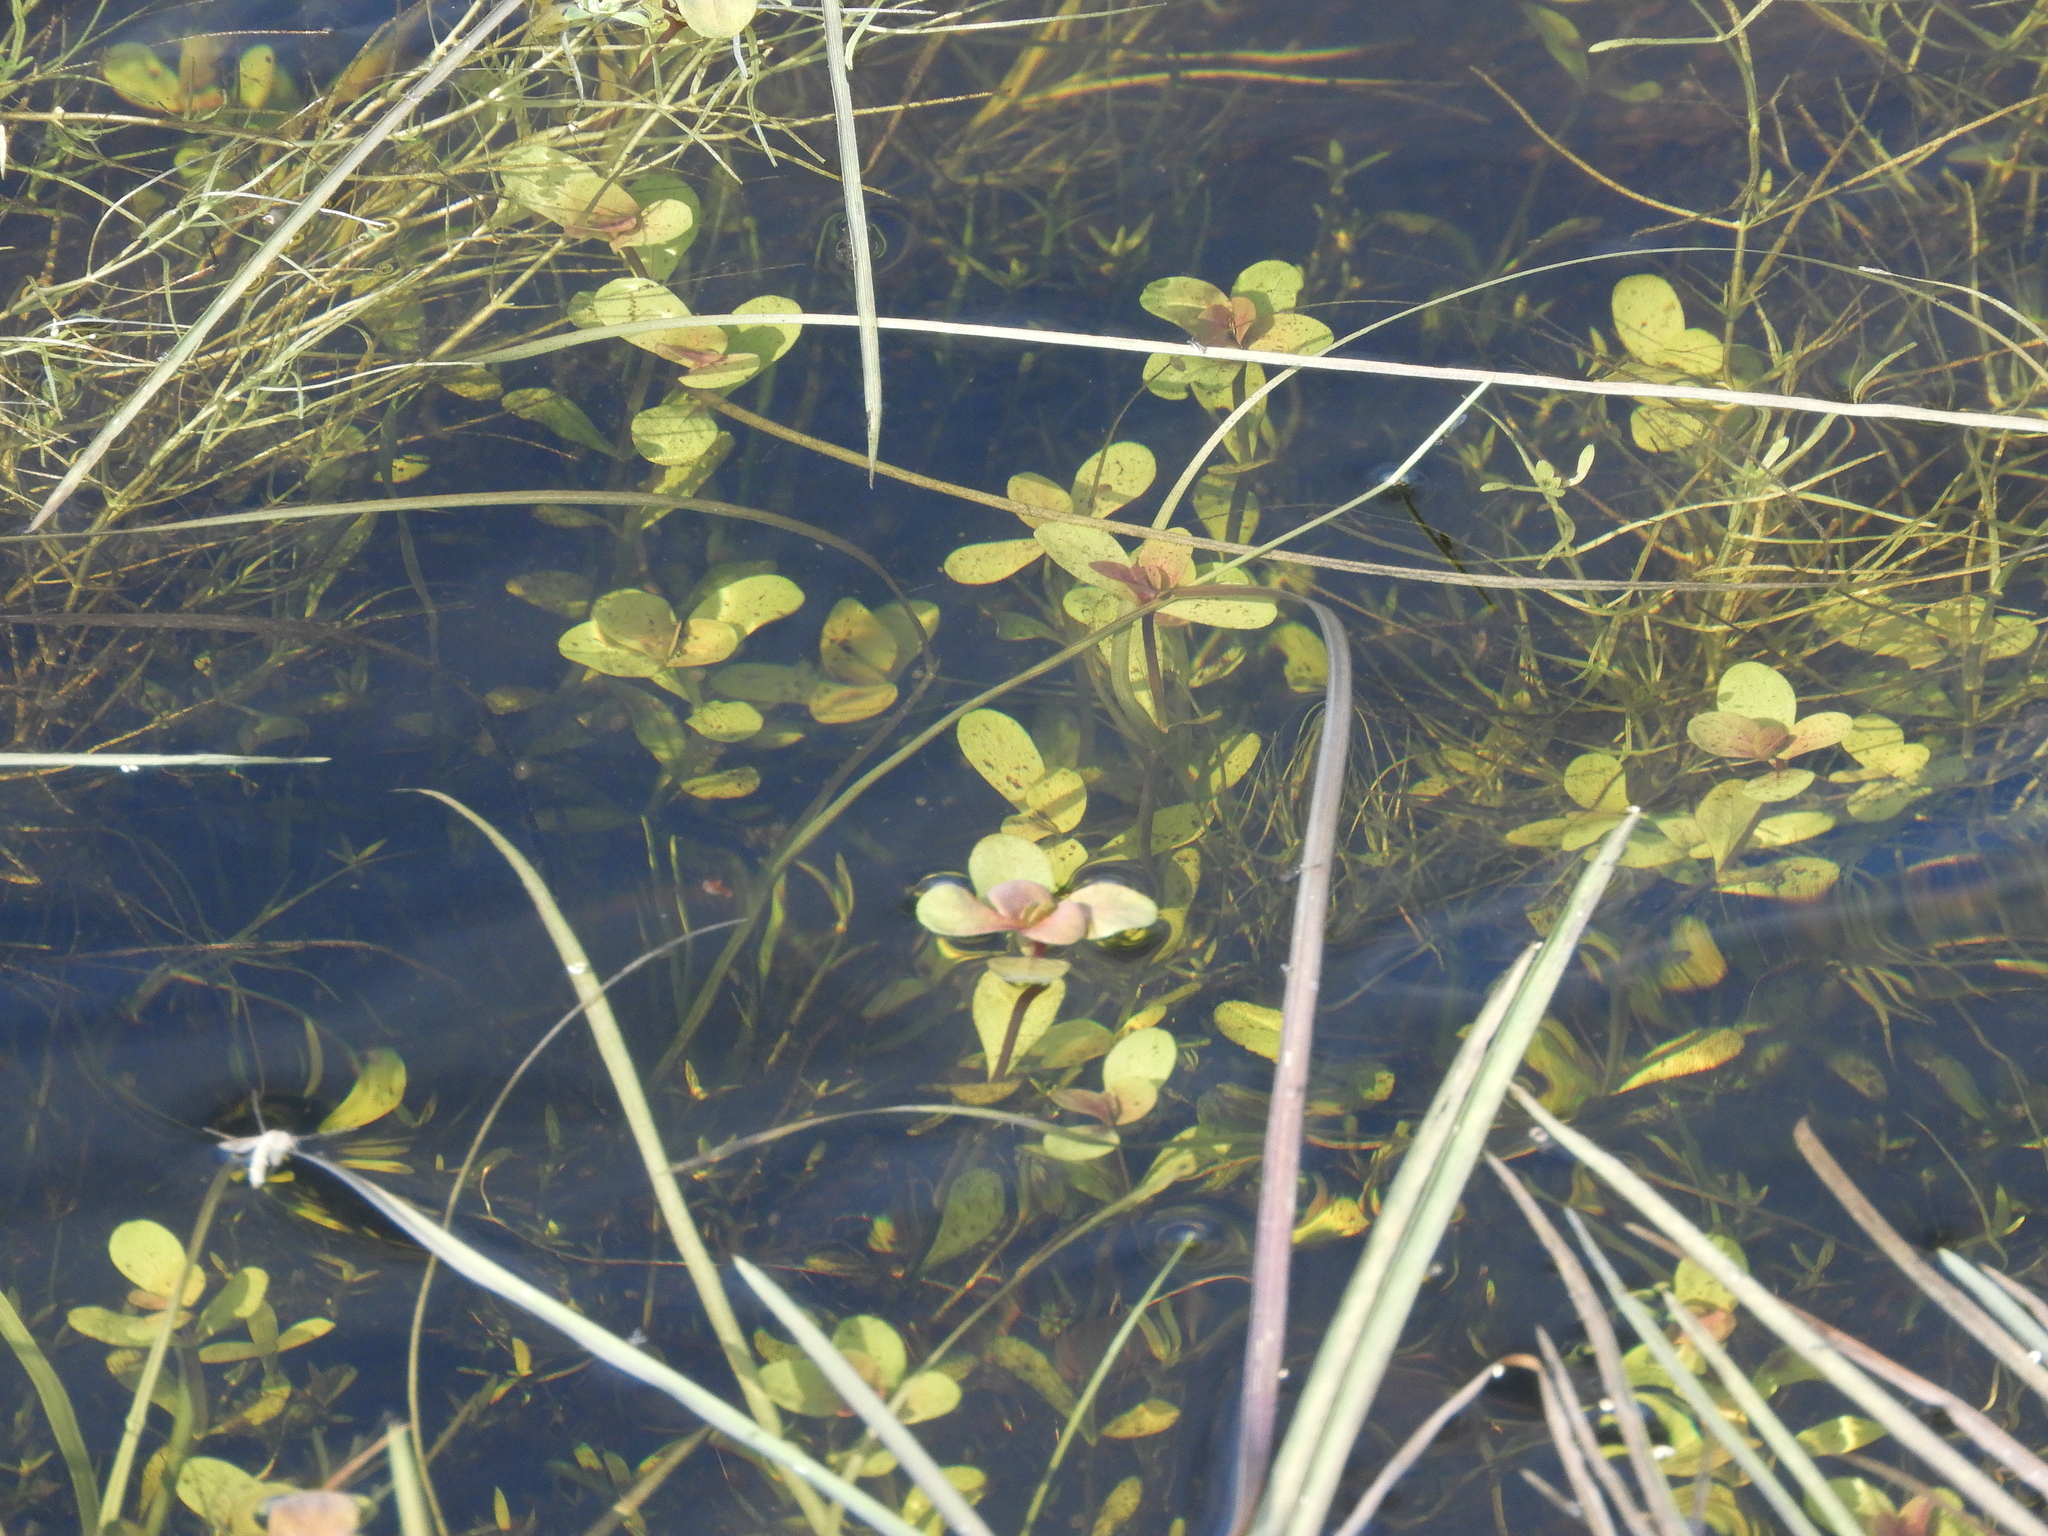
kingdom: Plantae
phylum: Tracheophyta
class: Magnoliopsida
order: Myrtales
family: Lythraceae
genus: Lythrum
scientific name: Lythrum portula
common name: Water purslane
